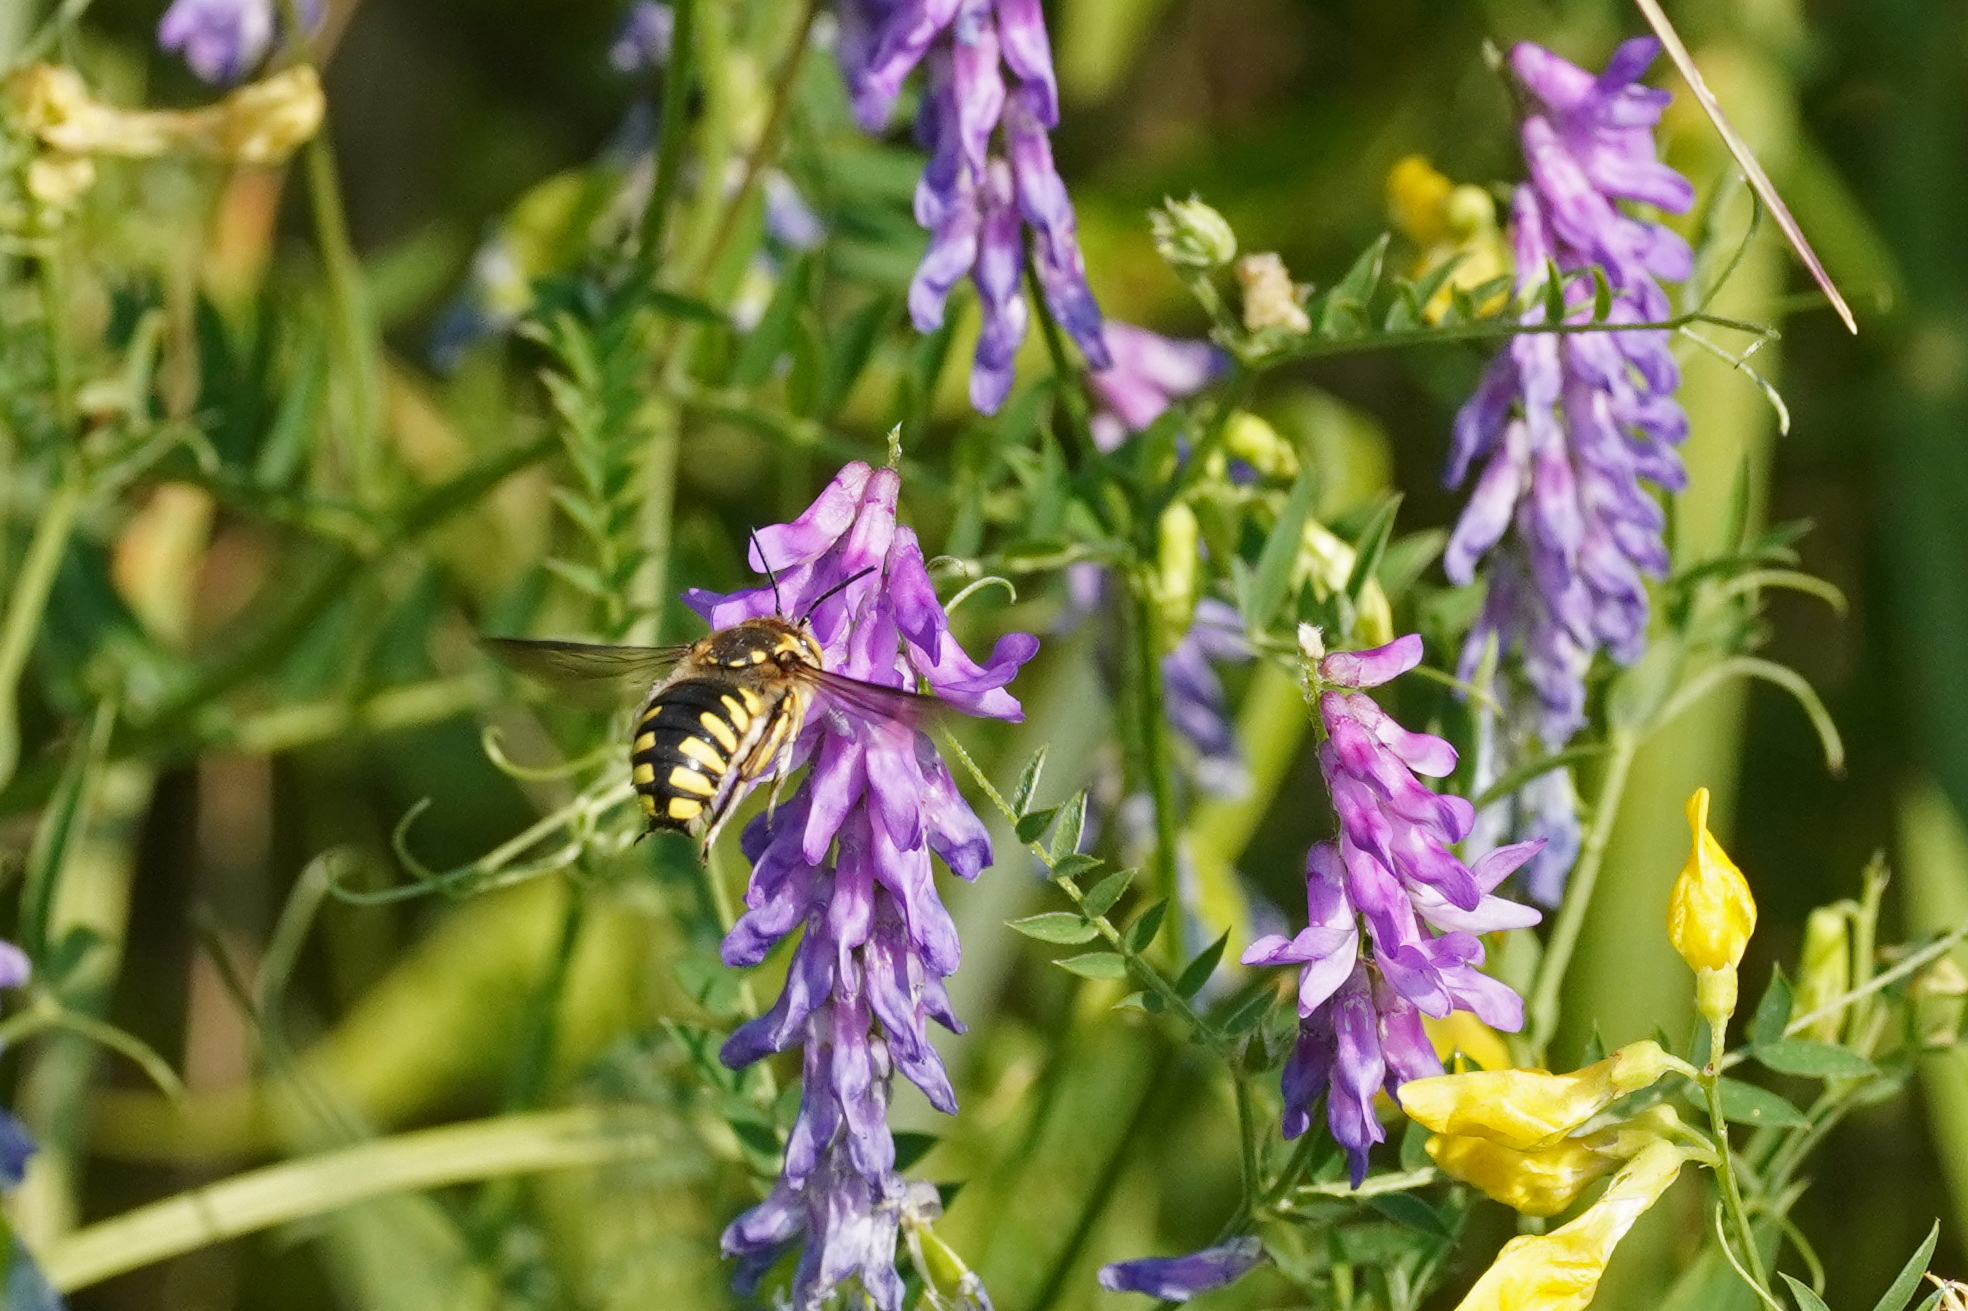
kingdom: Animalia
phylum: Arthropoda
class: Insecta
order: Hymenoptera
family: Megachilidae
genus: Anthidium
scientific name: Anthidium florentinum
